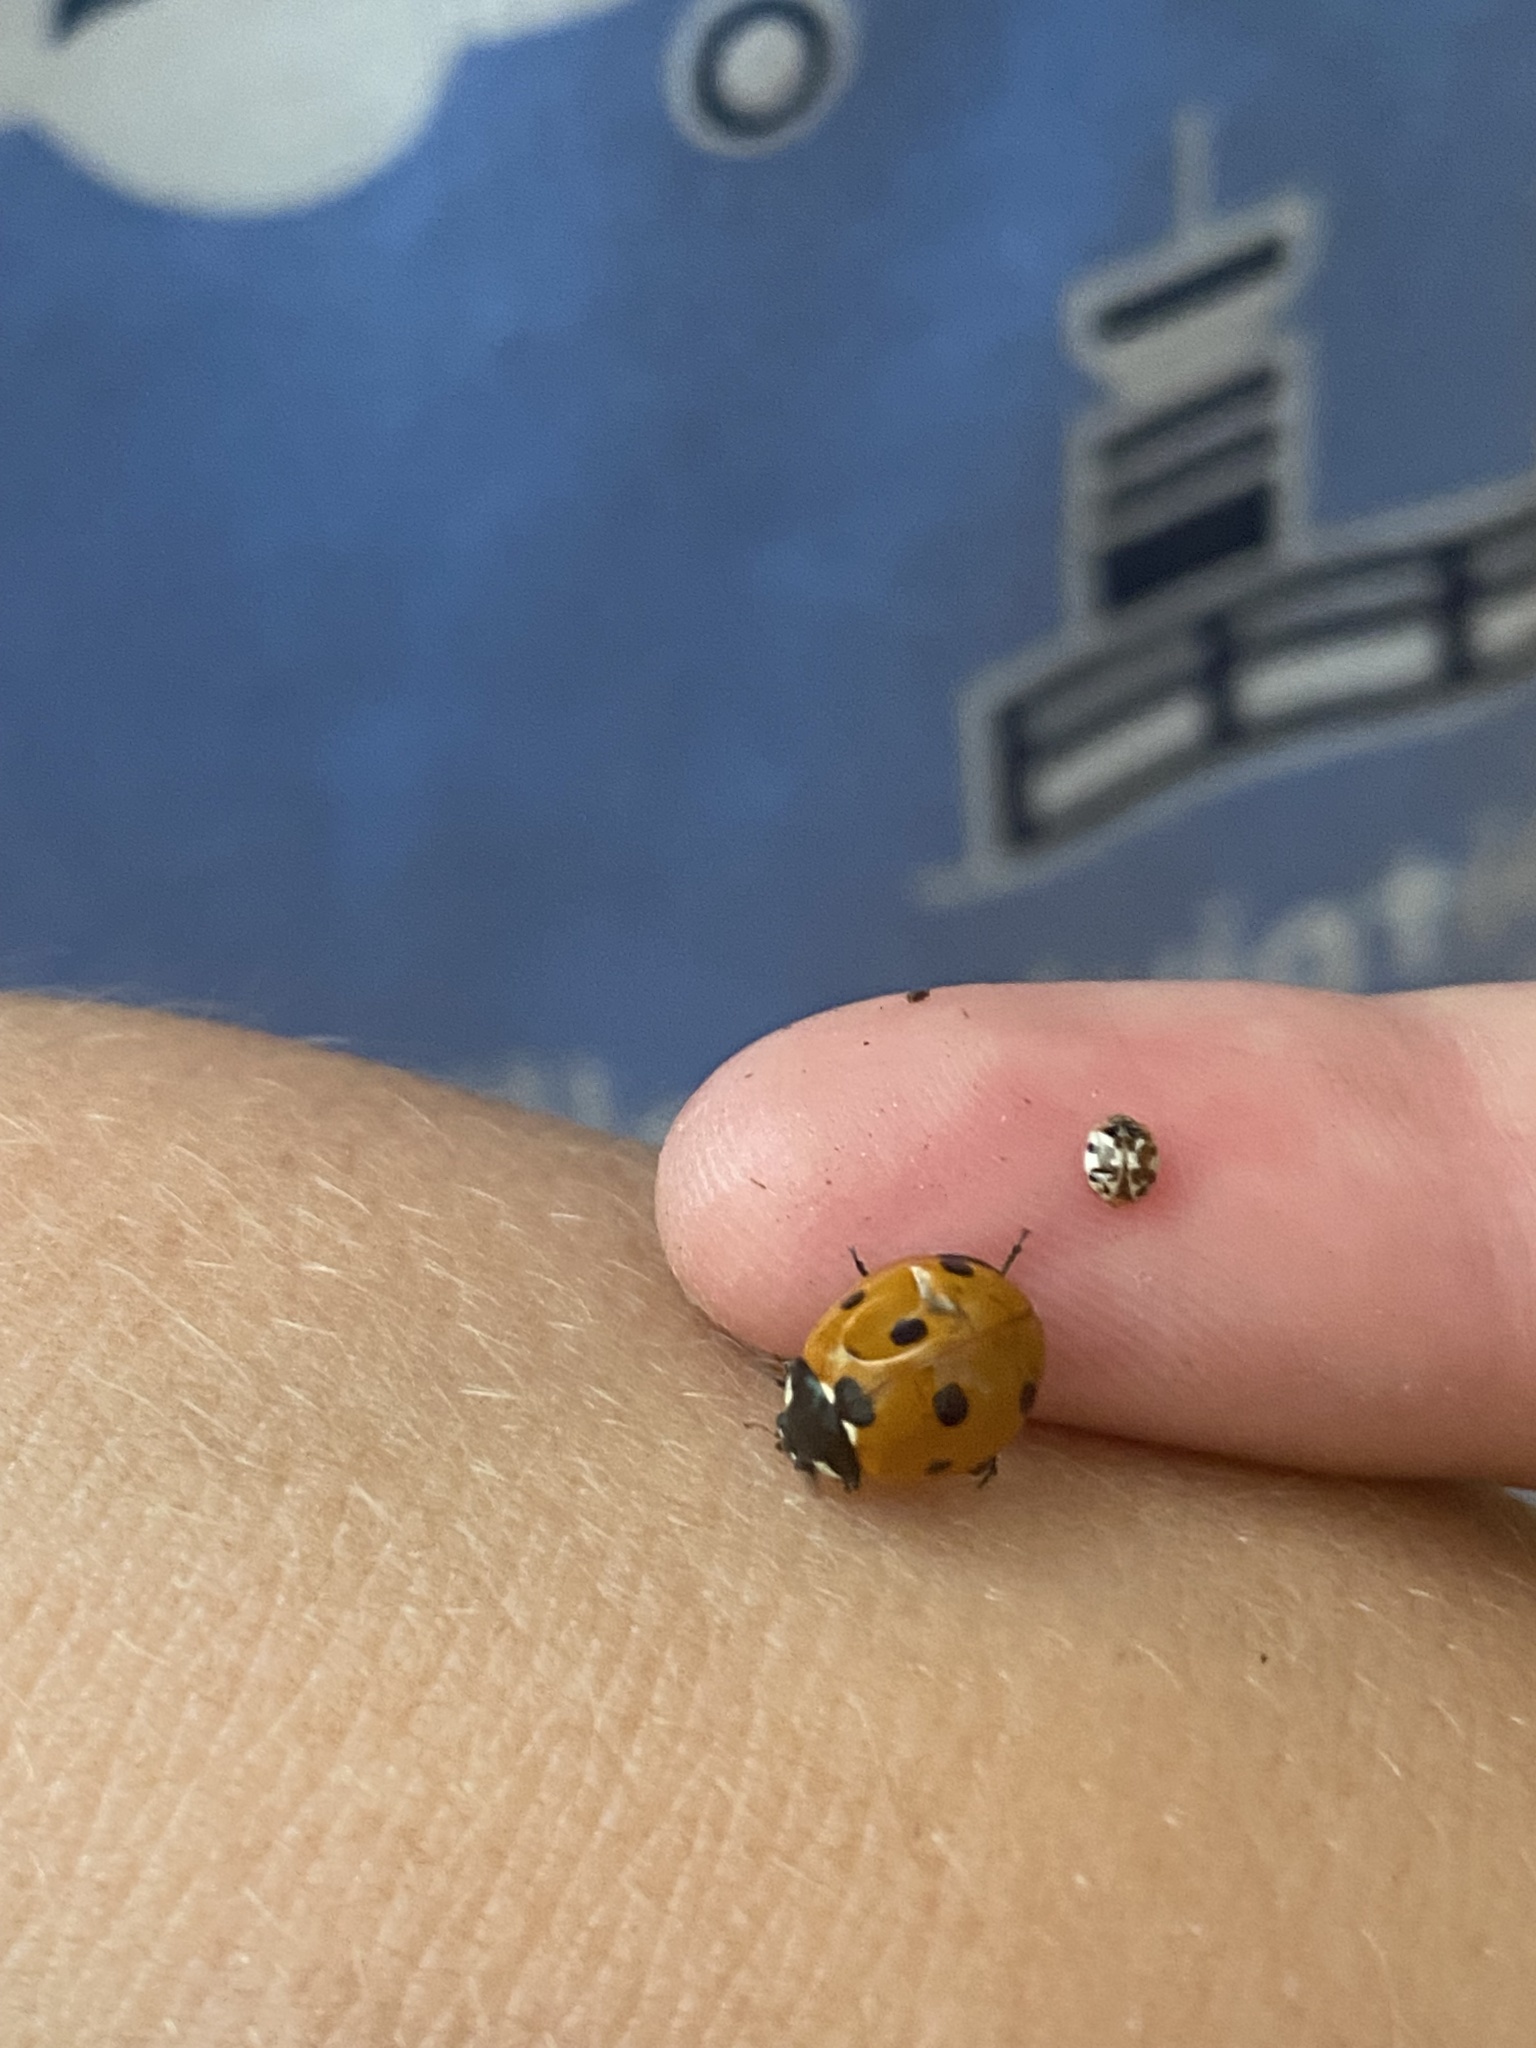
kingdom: Animalia
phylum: Arthropoda
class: Insecta
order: Coleoptera
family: Coccinellidae
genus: Coccinella
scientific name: Coccinella septempunctata
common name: Sevenspotted lady beetle
